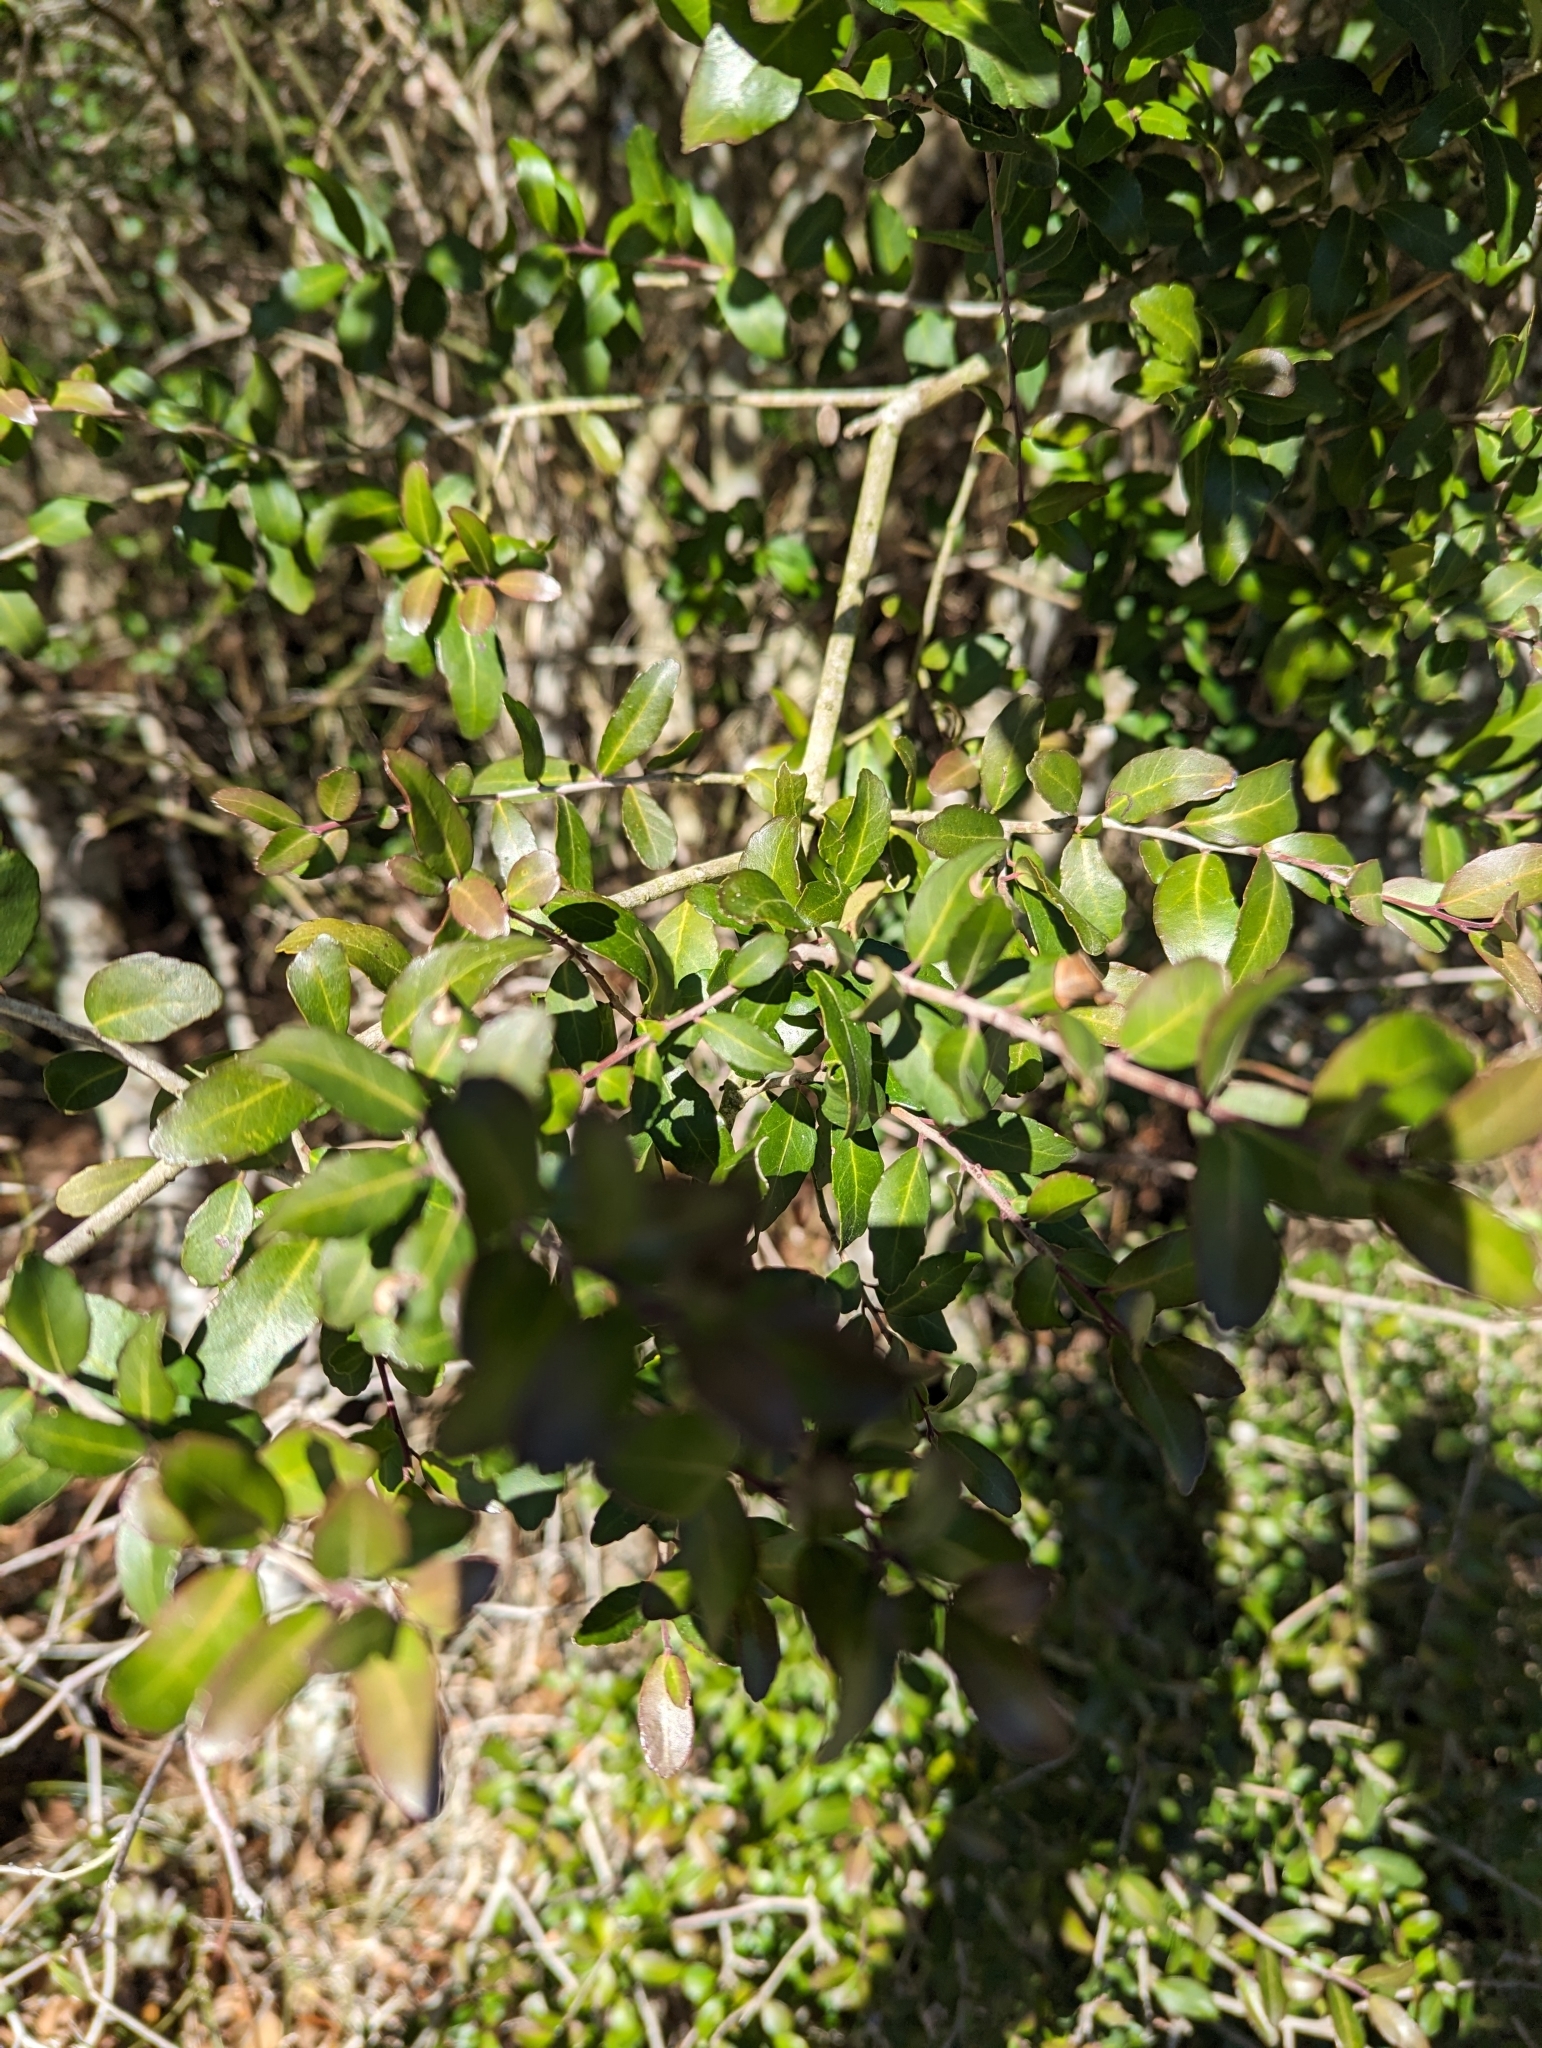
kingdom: Plantae
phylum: Tracheophyta
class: Magnoliopsida
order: Aquifoliales
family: Aquifoliaceae
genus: Ilex
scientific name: Ilex vomitoria
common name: Yaupon holly
